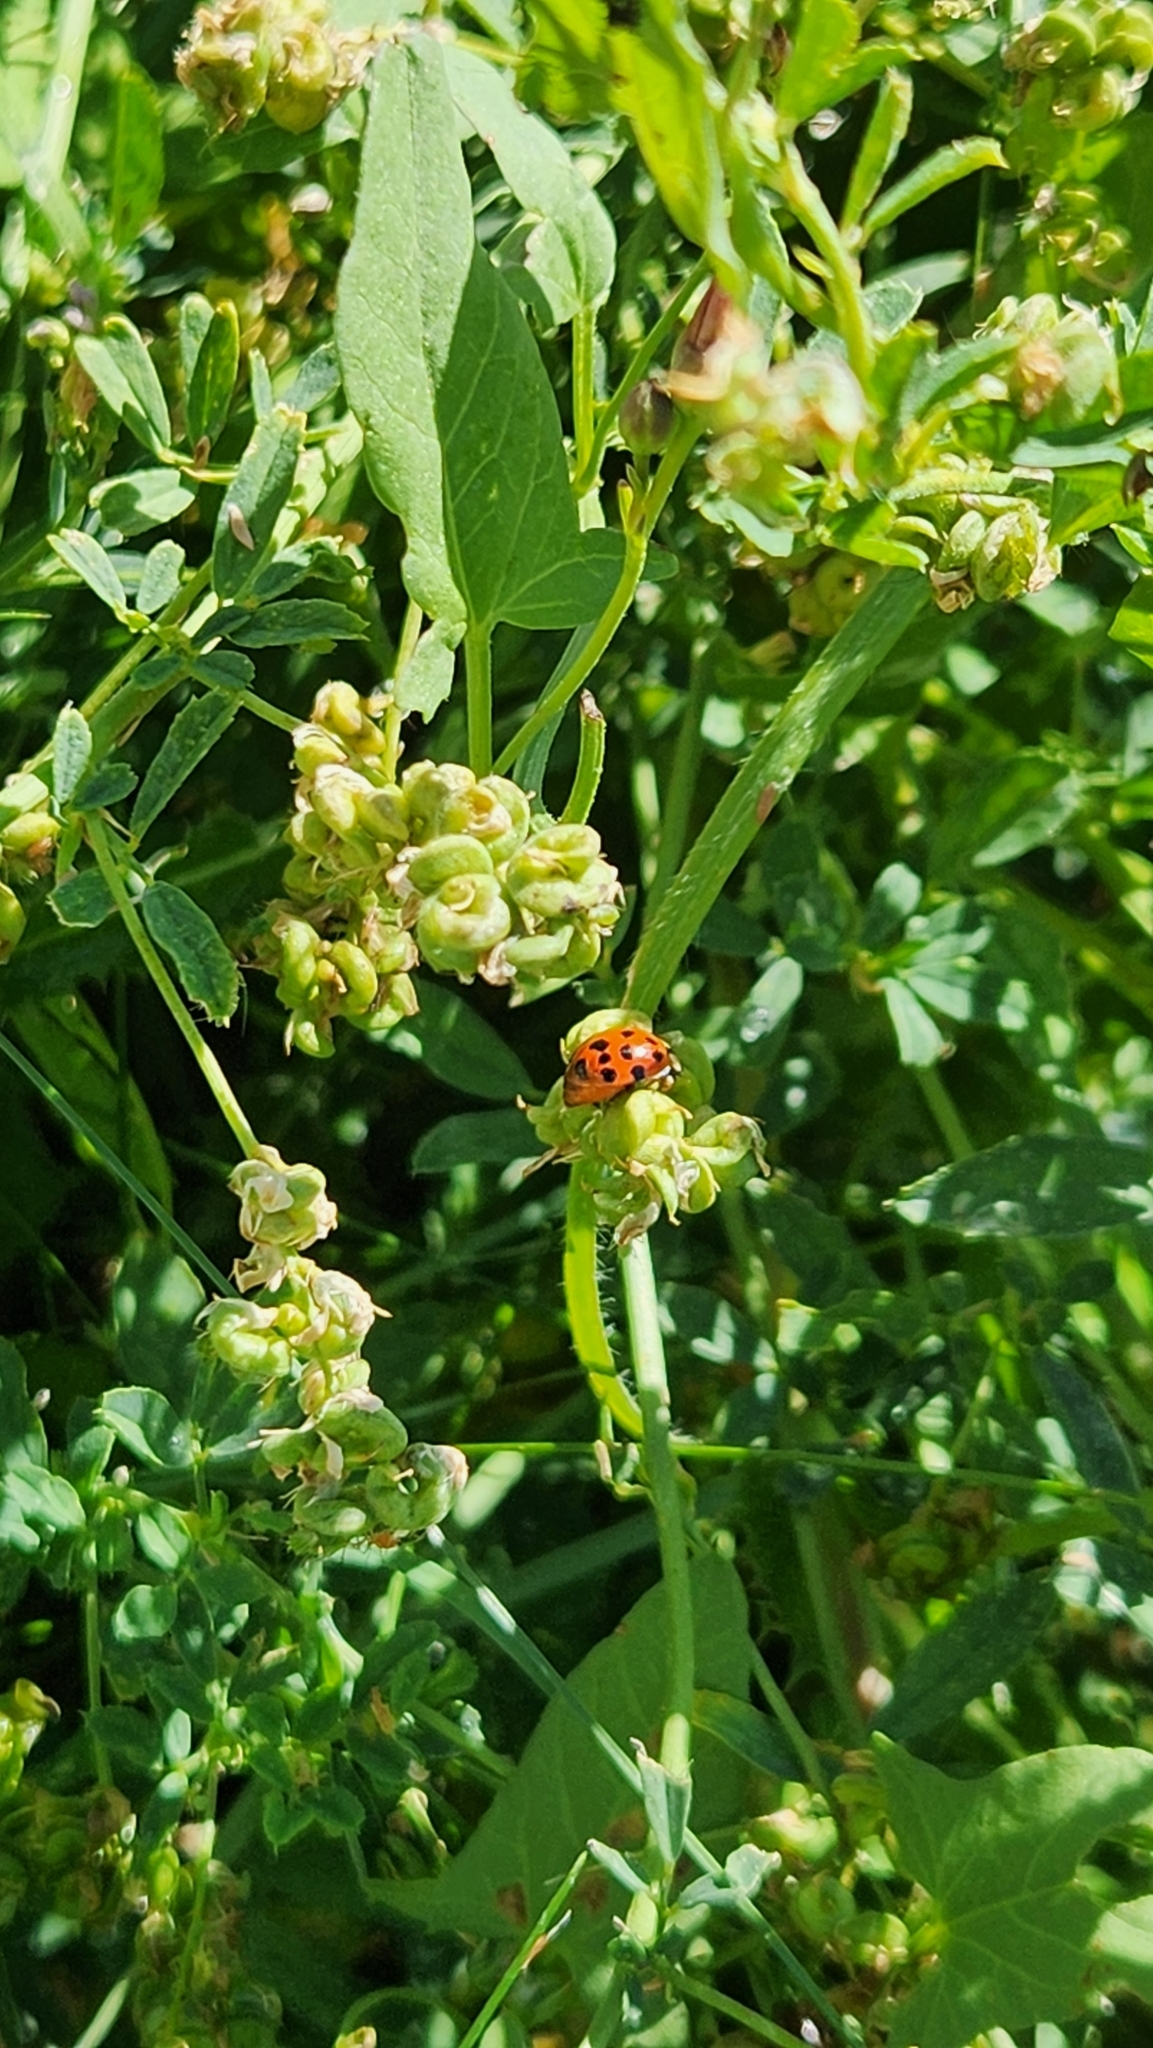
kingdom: Animalia
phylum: Arthropoda
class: Insecta
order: Coleoptera
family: Coccinellidae
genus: Harmonia
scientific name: Harmonia axyridis
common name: Harlequin ladybird
